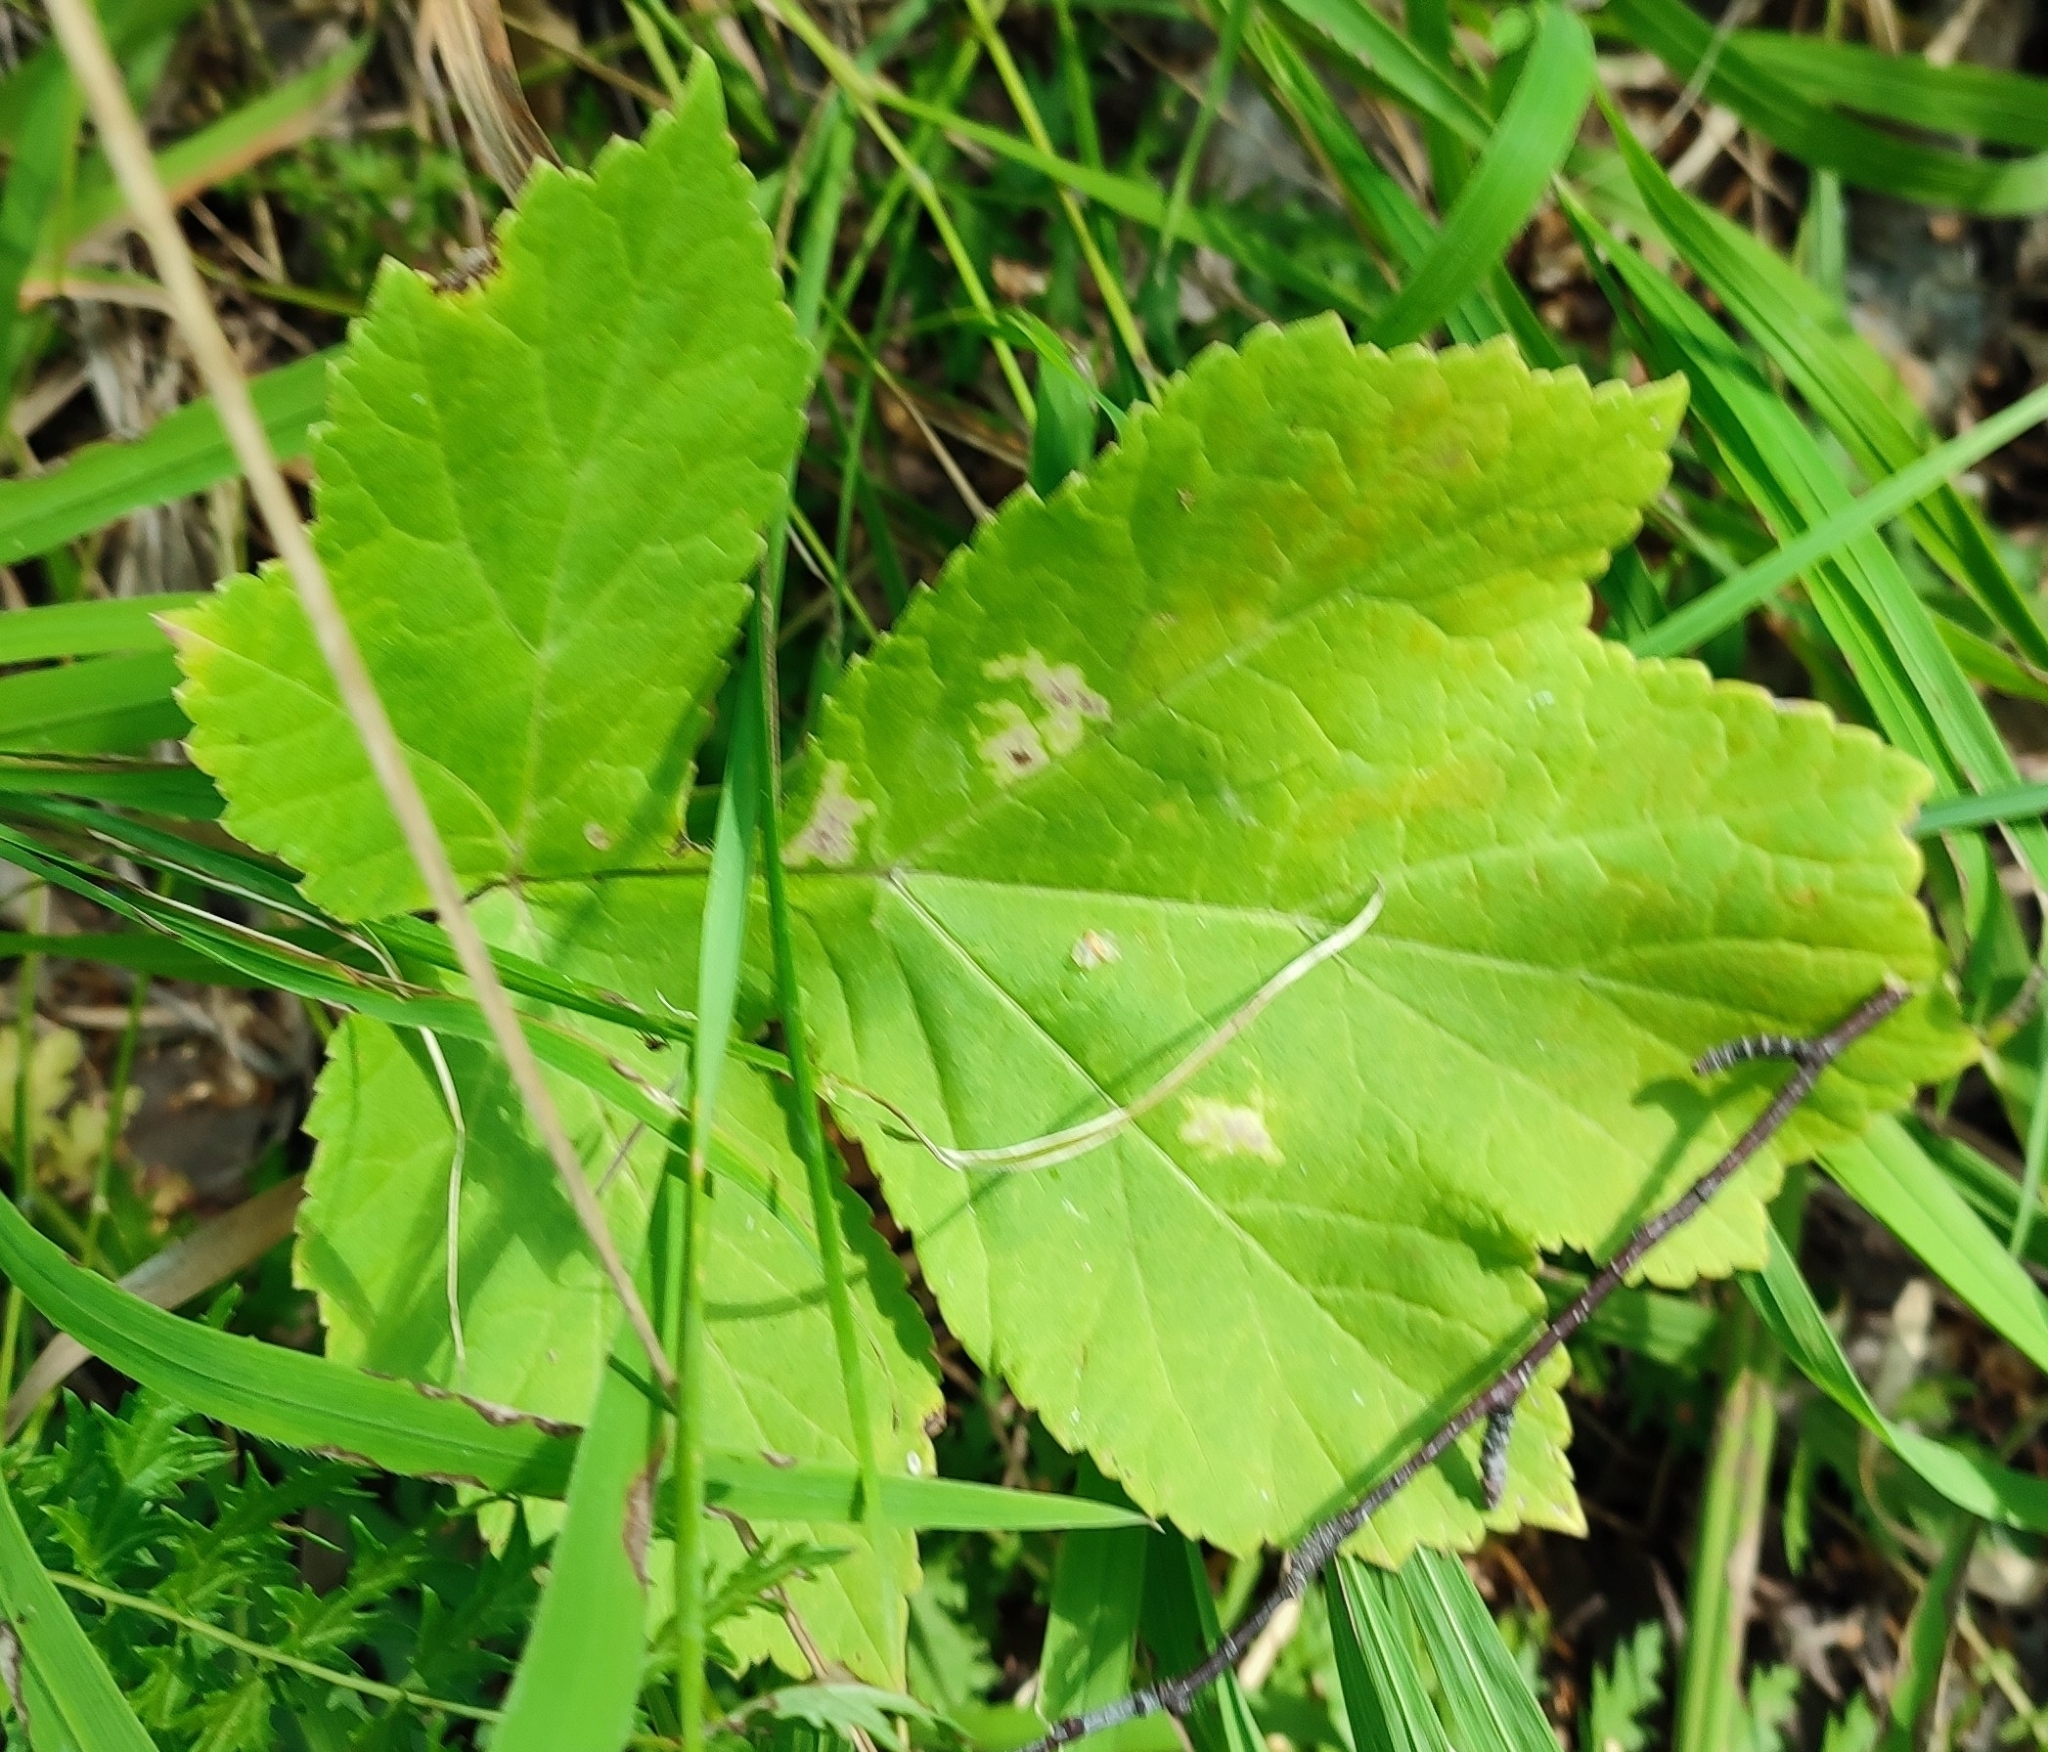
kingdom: Plantae
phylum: Tracheophyta
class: Magnoliopsida
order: Apiales
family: Apiaceae
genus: Heracleum
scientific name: Heracleum sphondylium
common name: Hogweed
